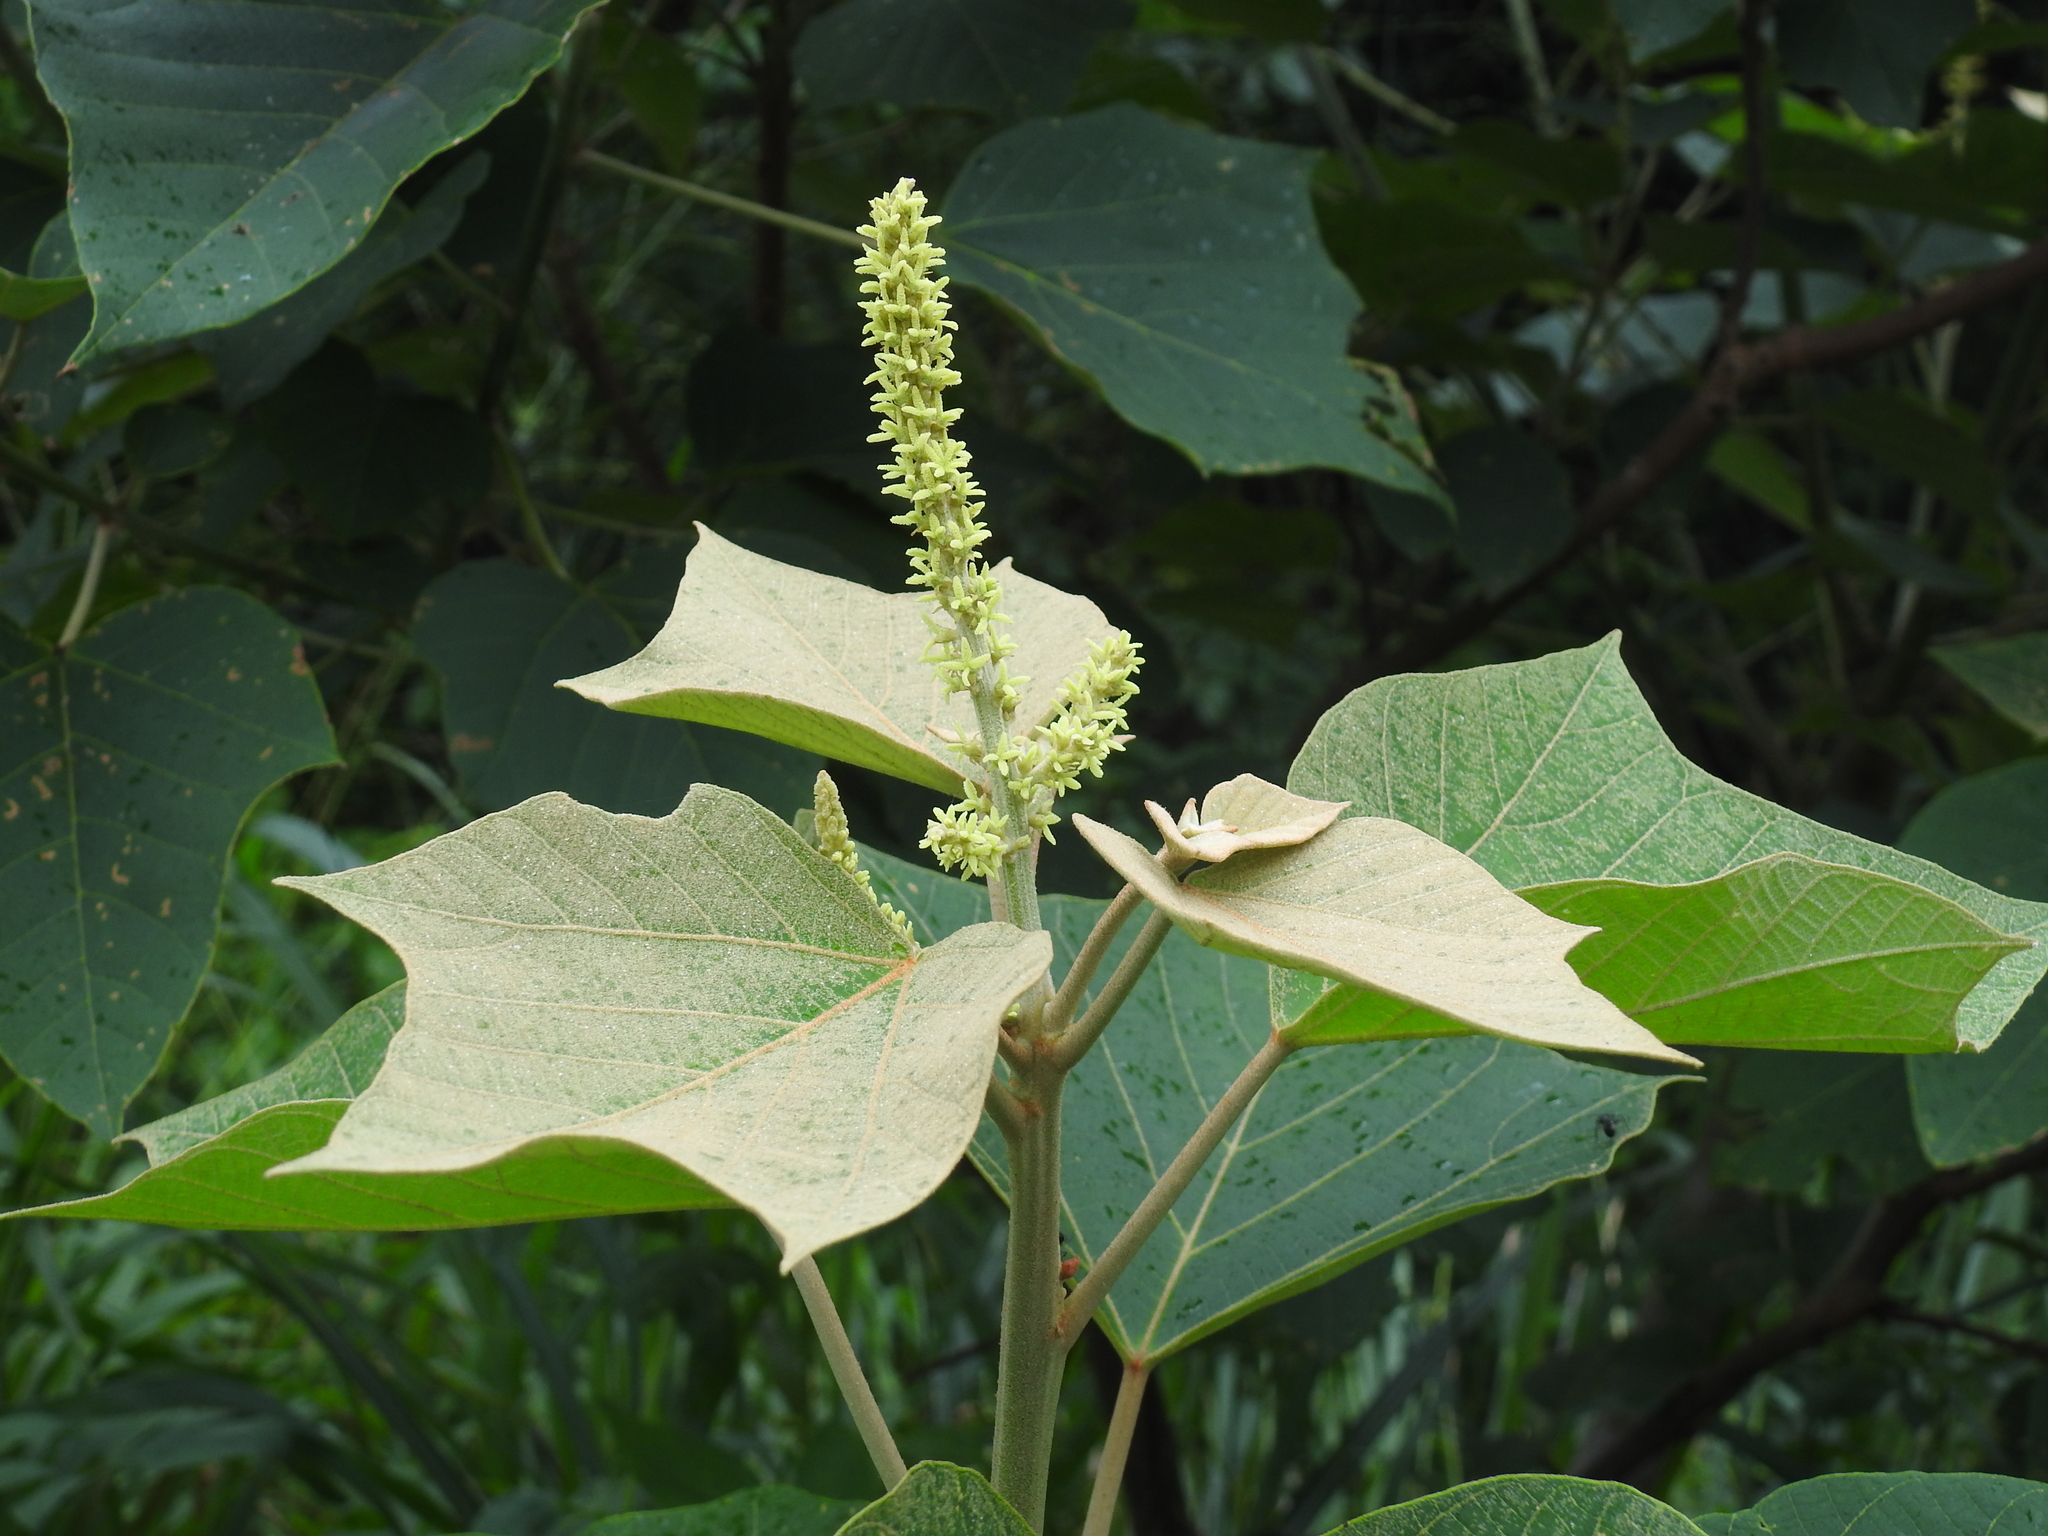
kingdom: Plantae
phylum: Tracheophyta
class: Magnoliopsida
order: Malpighiales
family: Euphorbiaceae
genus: Mallotus
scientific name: Mallotus japonicus
